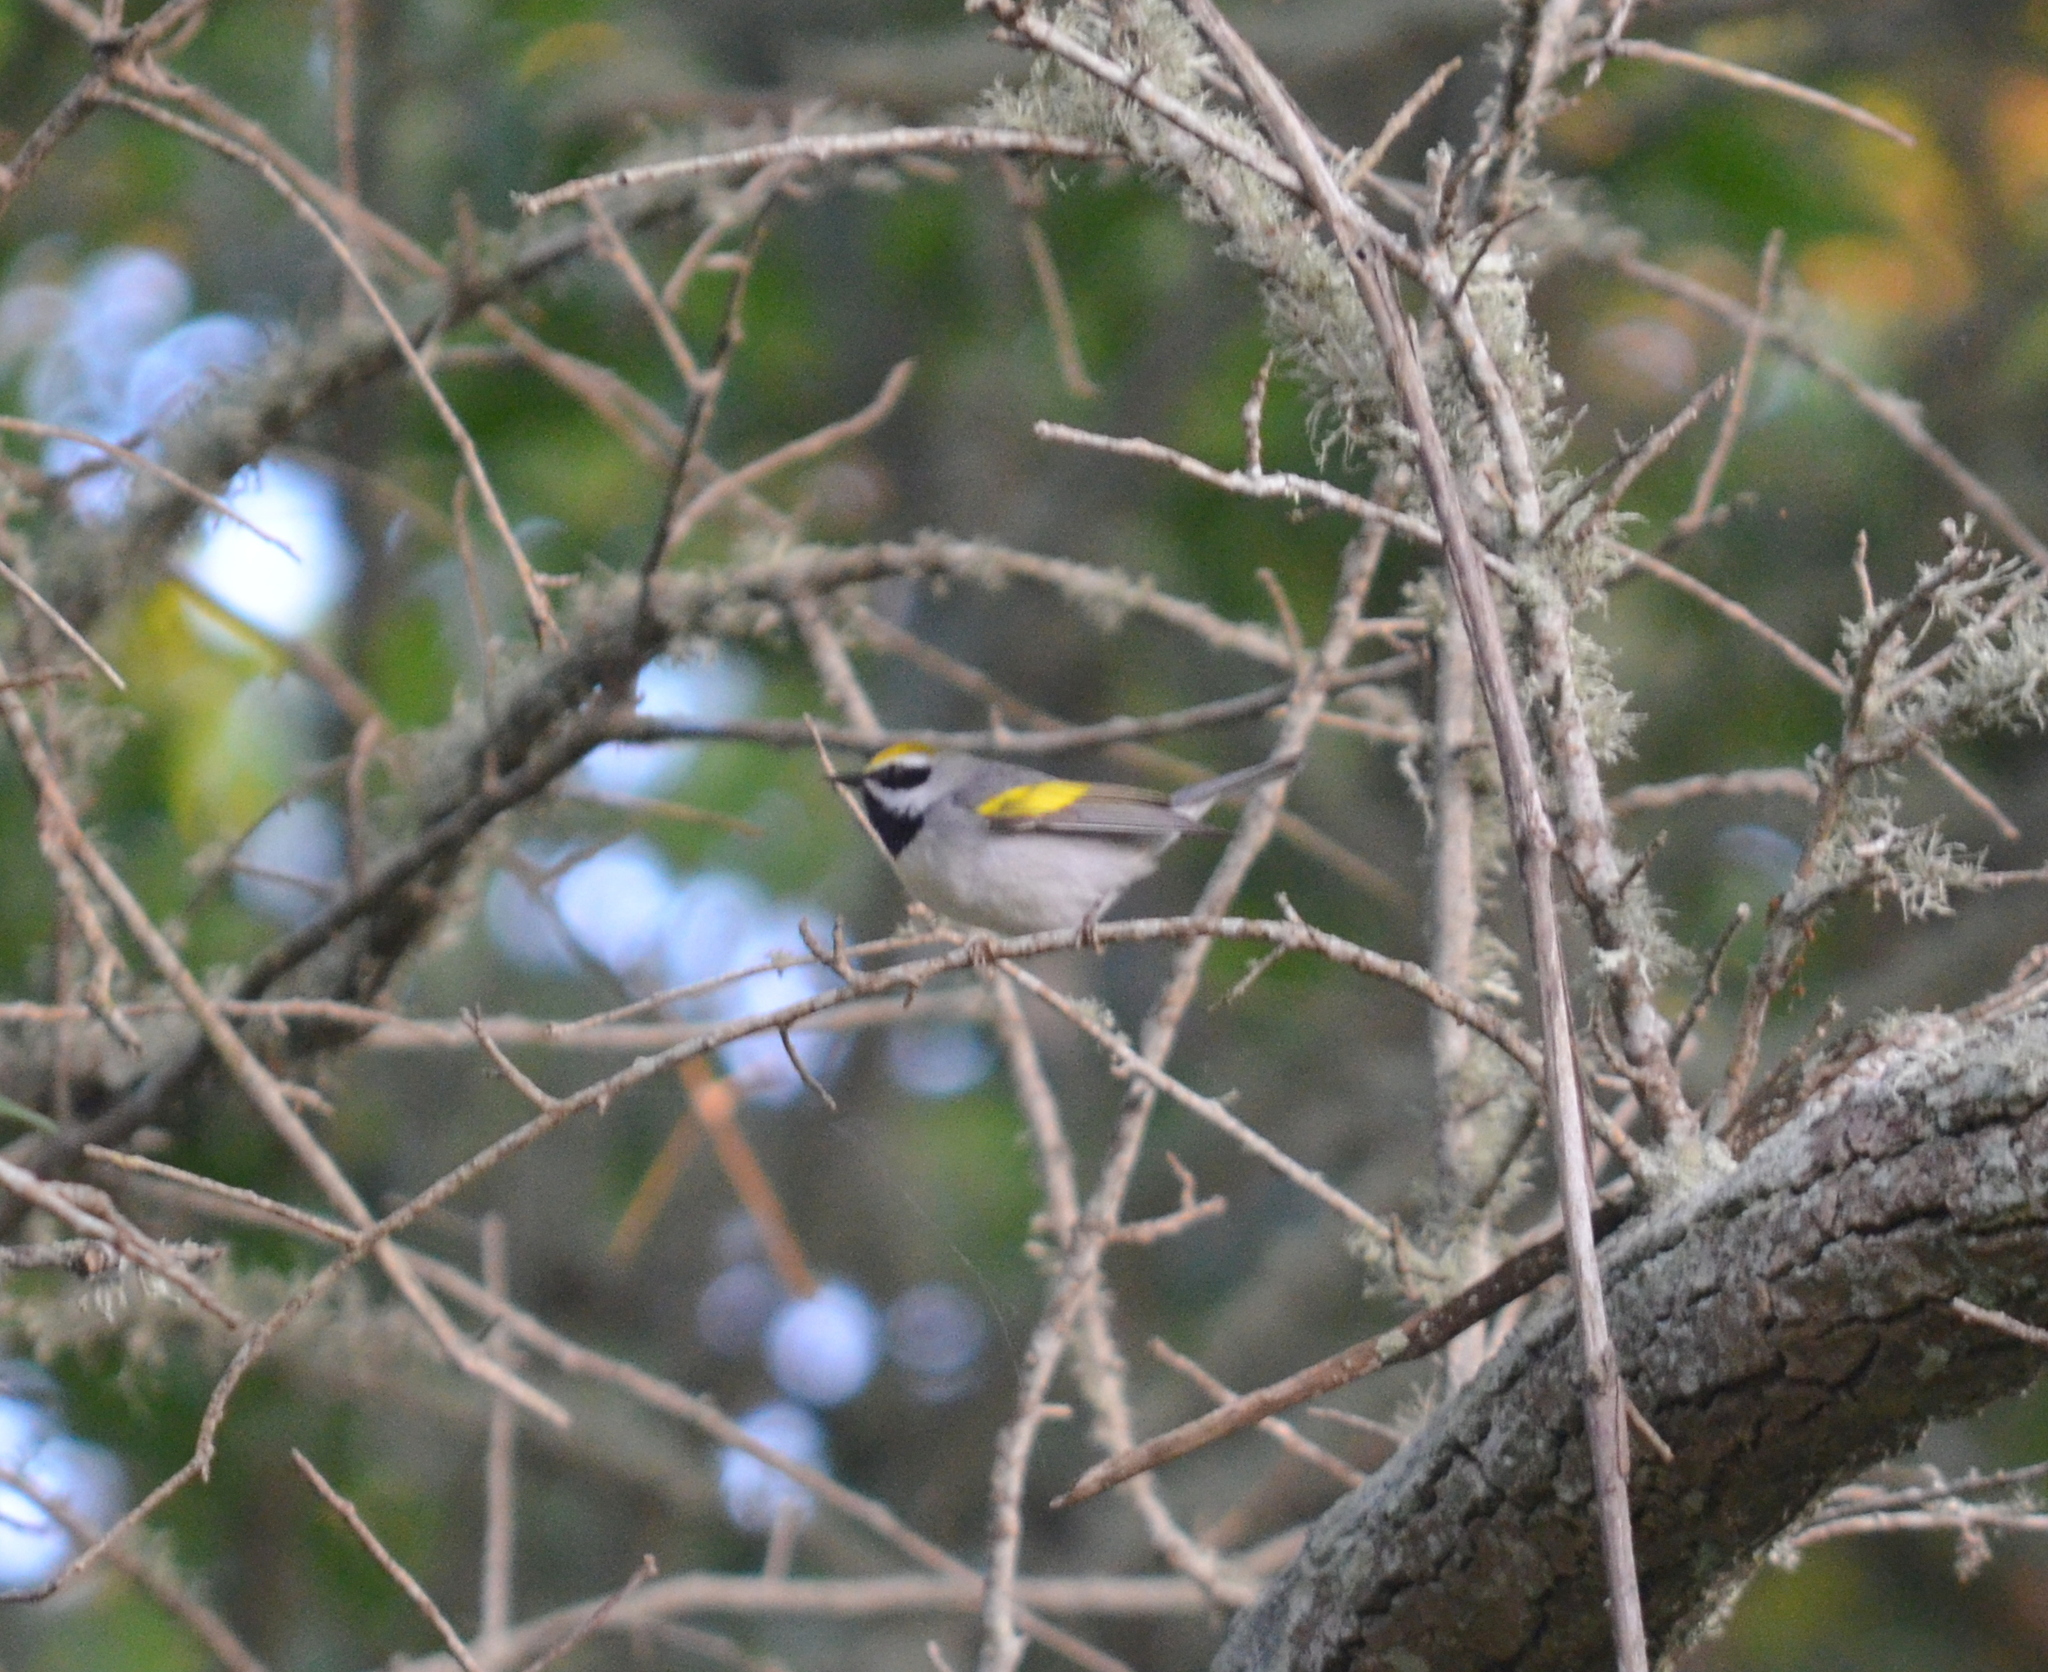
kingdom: Animalia
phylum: Chordata
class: Aves
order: Passeriformes
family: Parulidae
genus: Vermivora
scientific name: Vermivora chrysoptera
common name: Golden-winged warbler
